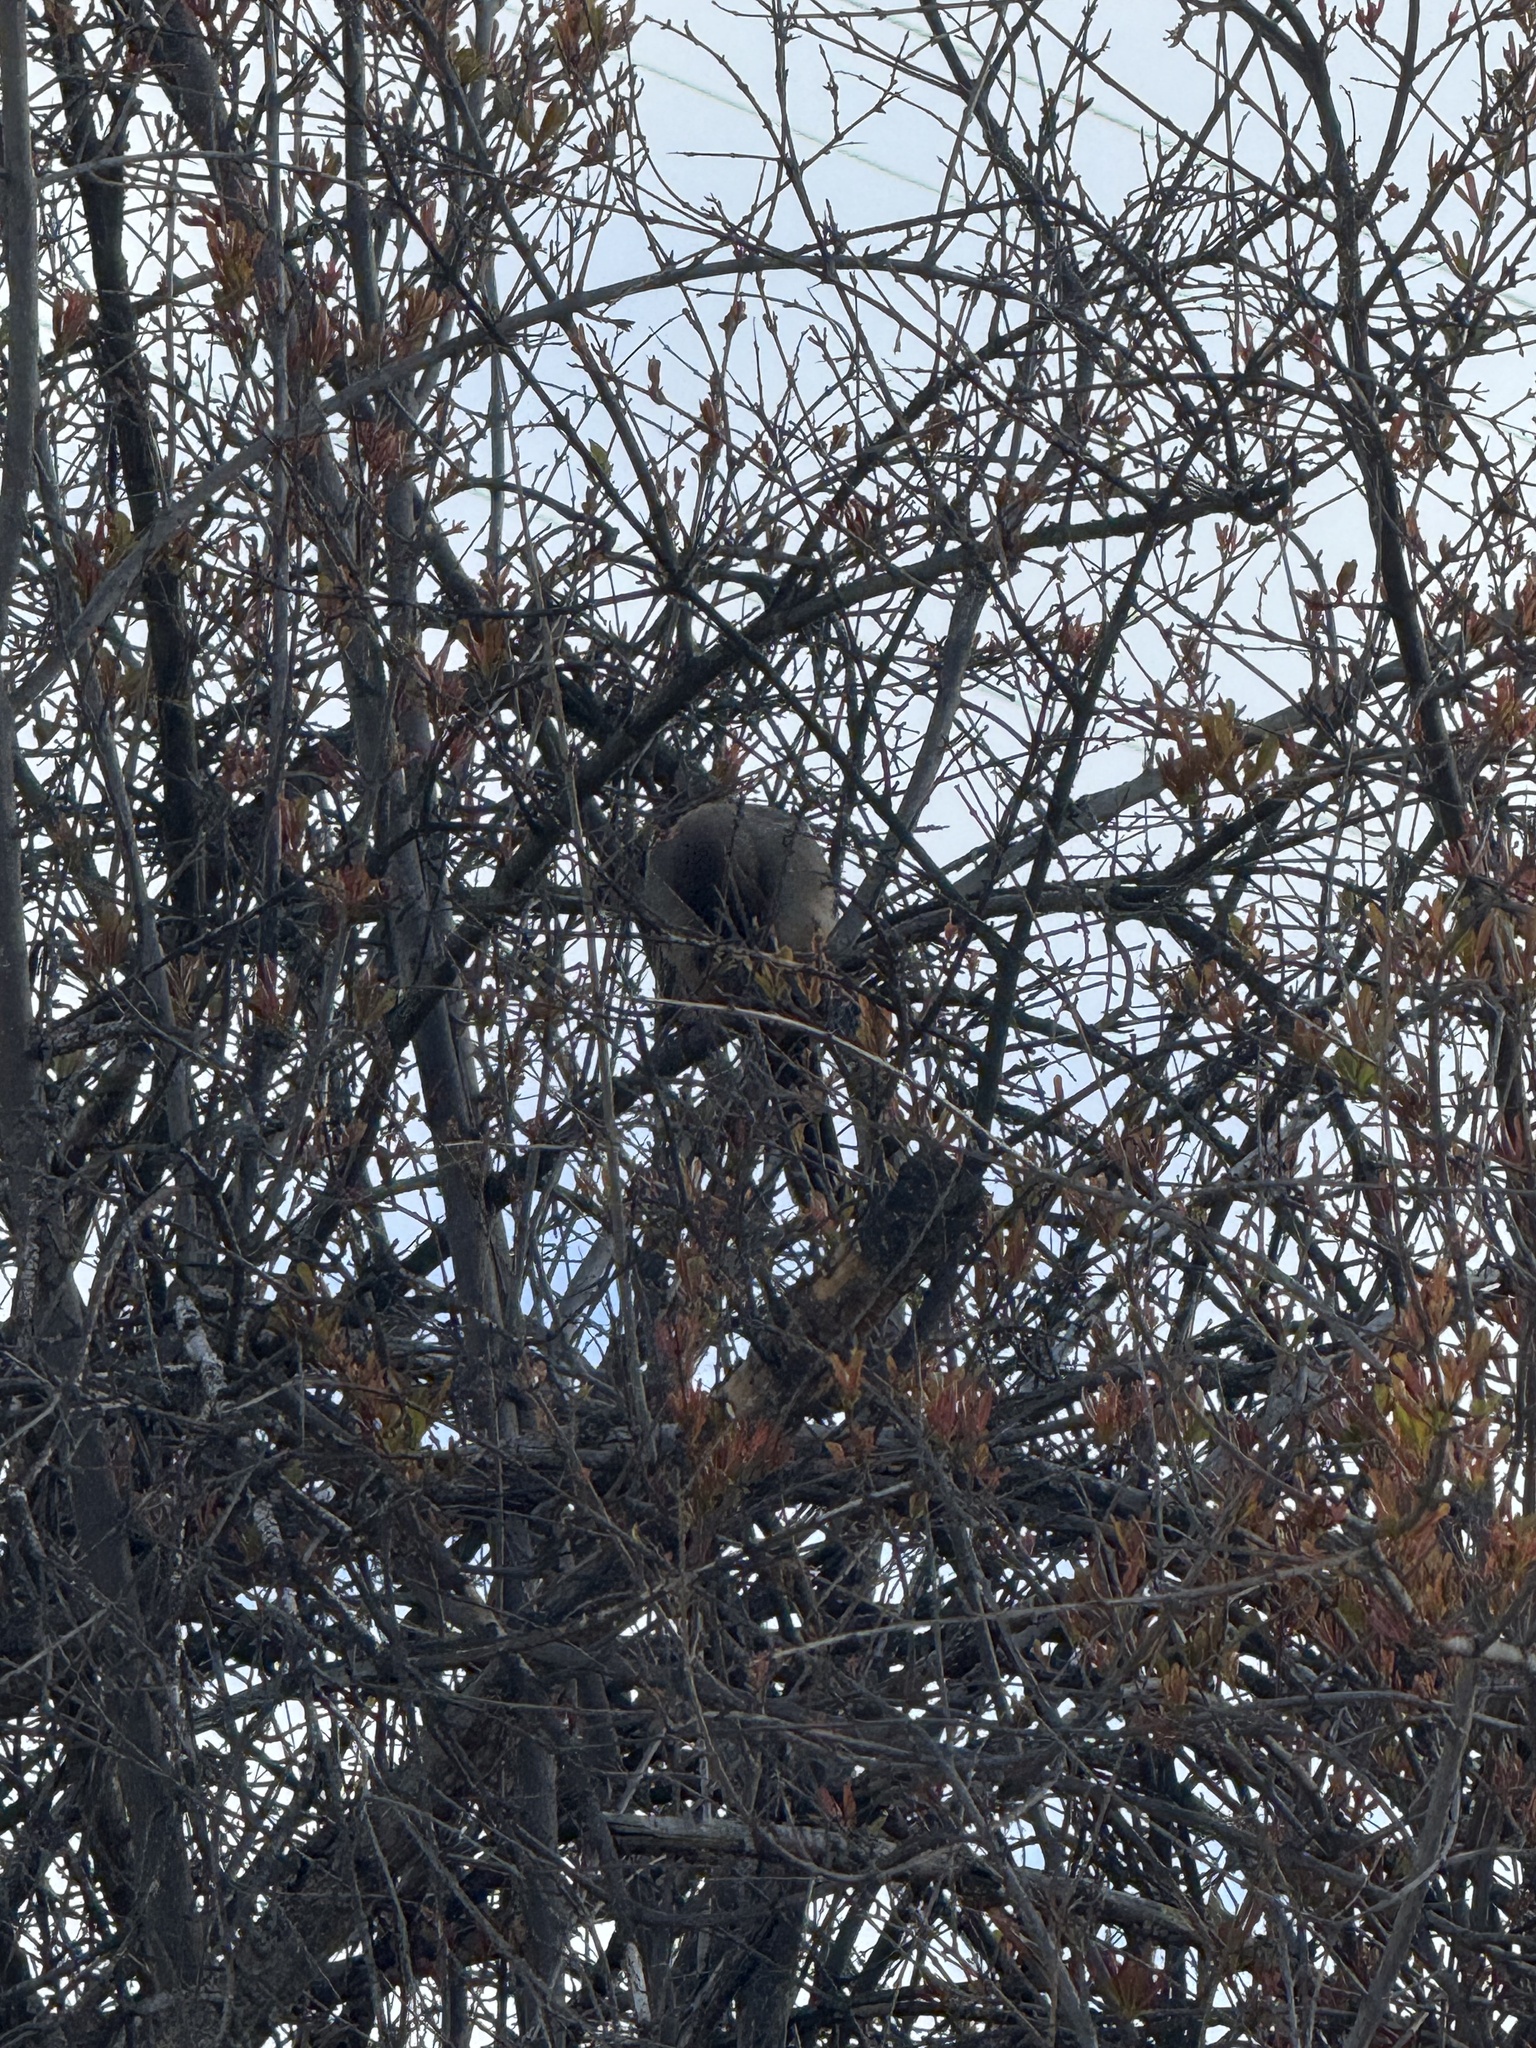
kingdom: Animalia
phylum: Chordata
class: Aves
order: Passeriformes
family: Passerellidae
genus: Melozone
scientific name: Melozone crissalis
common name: California towhee
